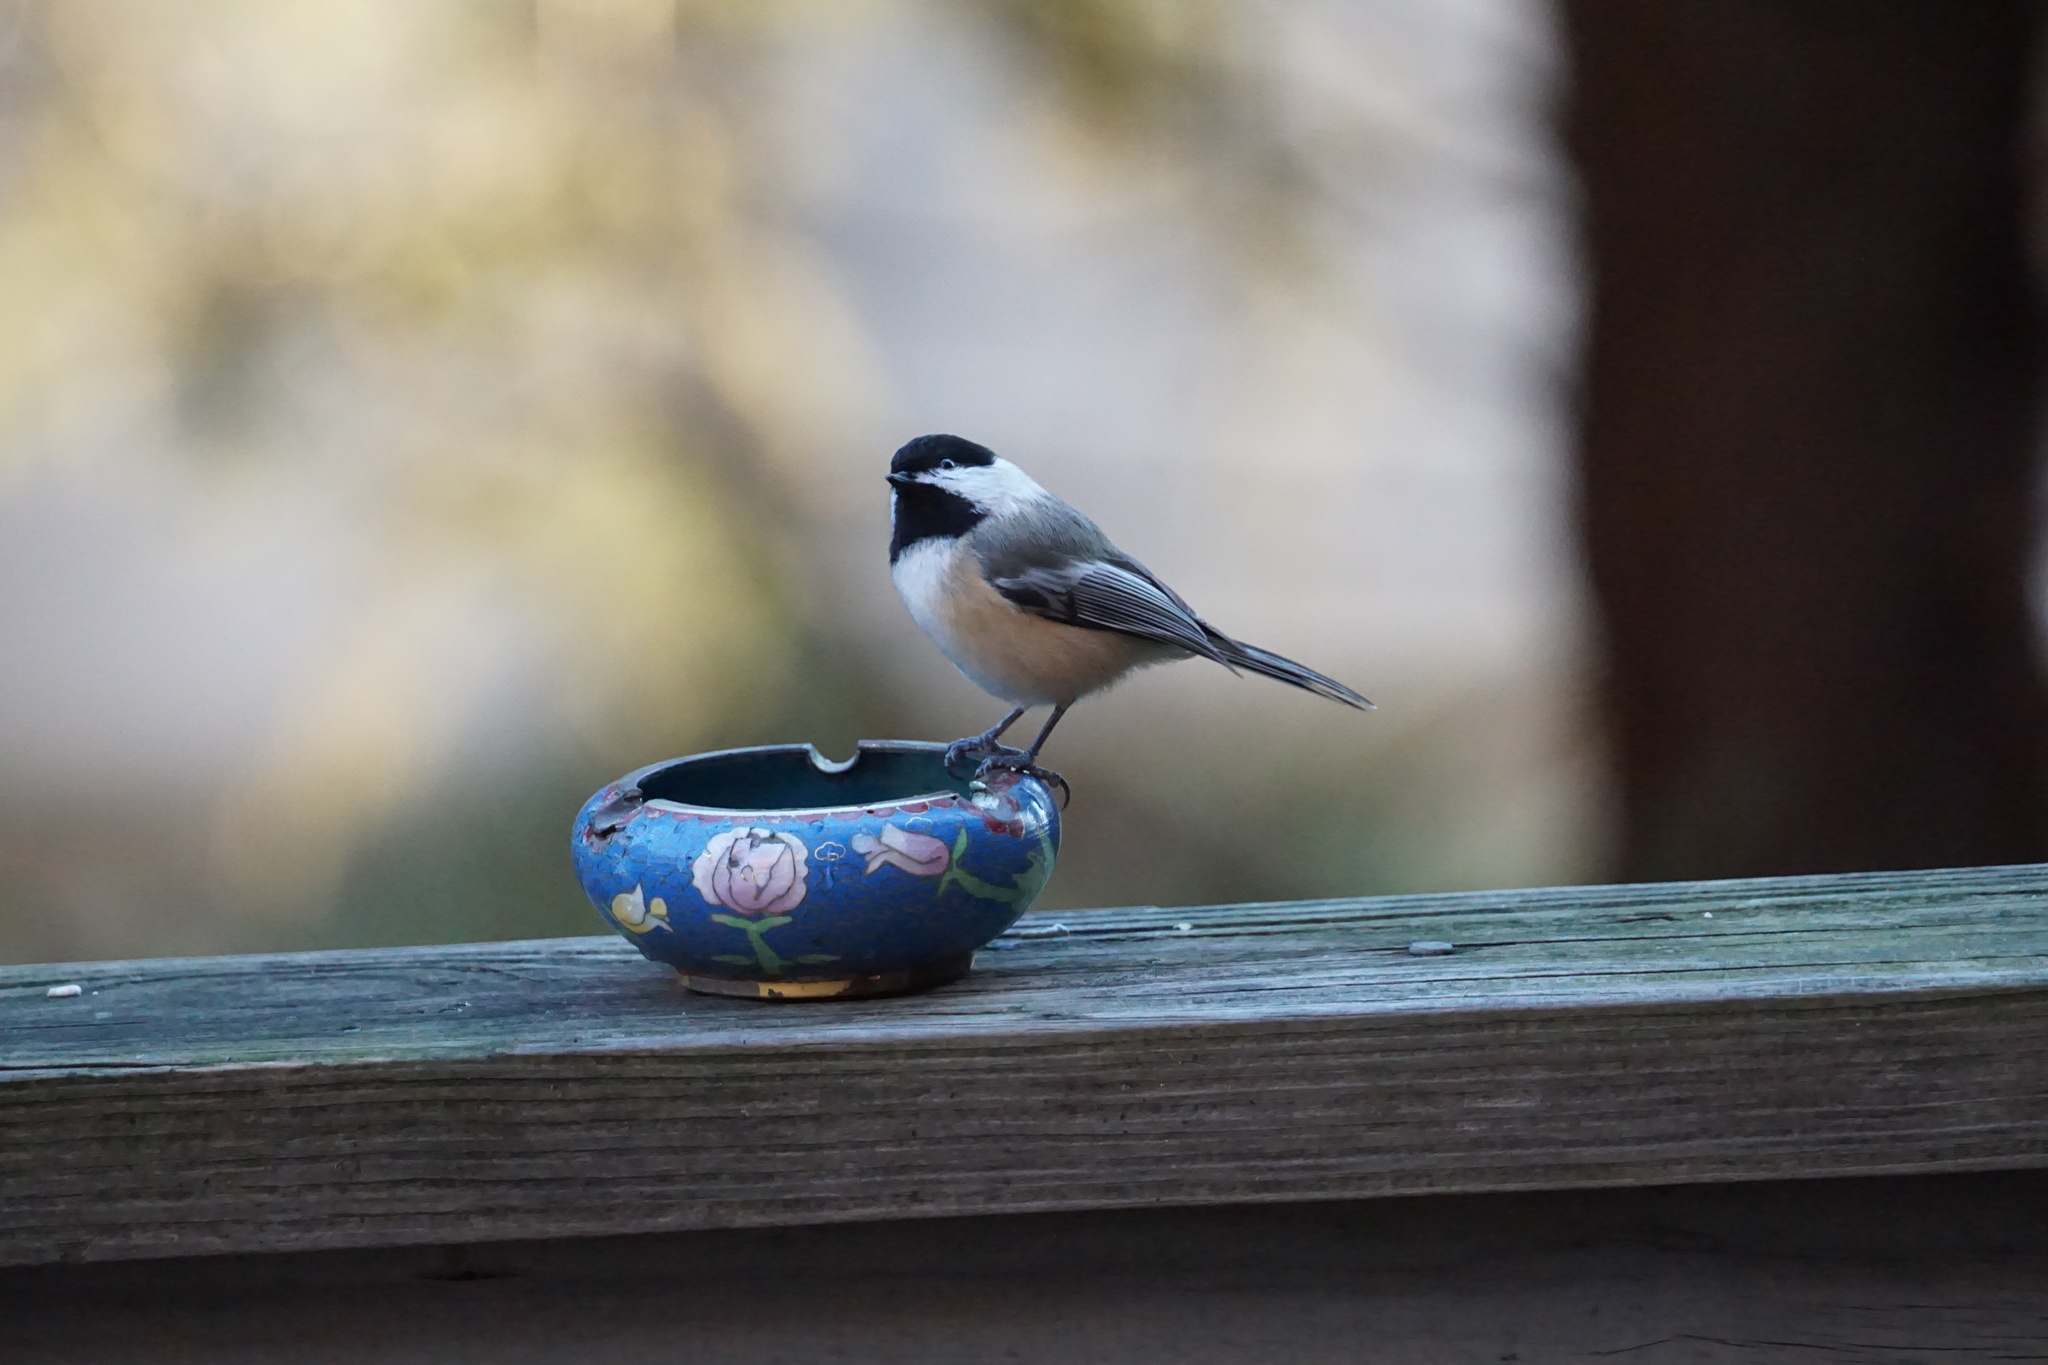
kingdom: Animalia
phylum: Chordata
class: Aves
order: Passeriformes
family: Paridae
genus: Poecile
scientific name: Poecile atricapillus
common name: Black-capped chickadee
